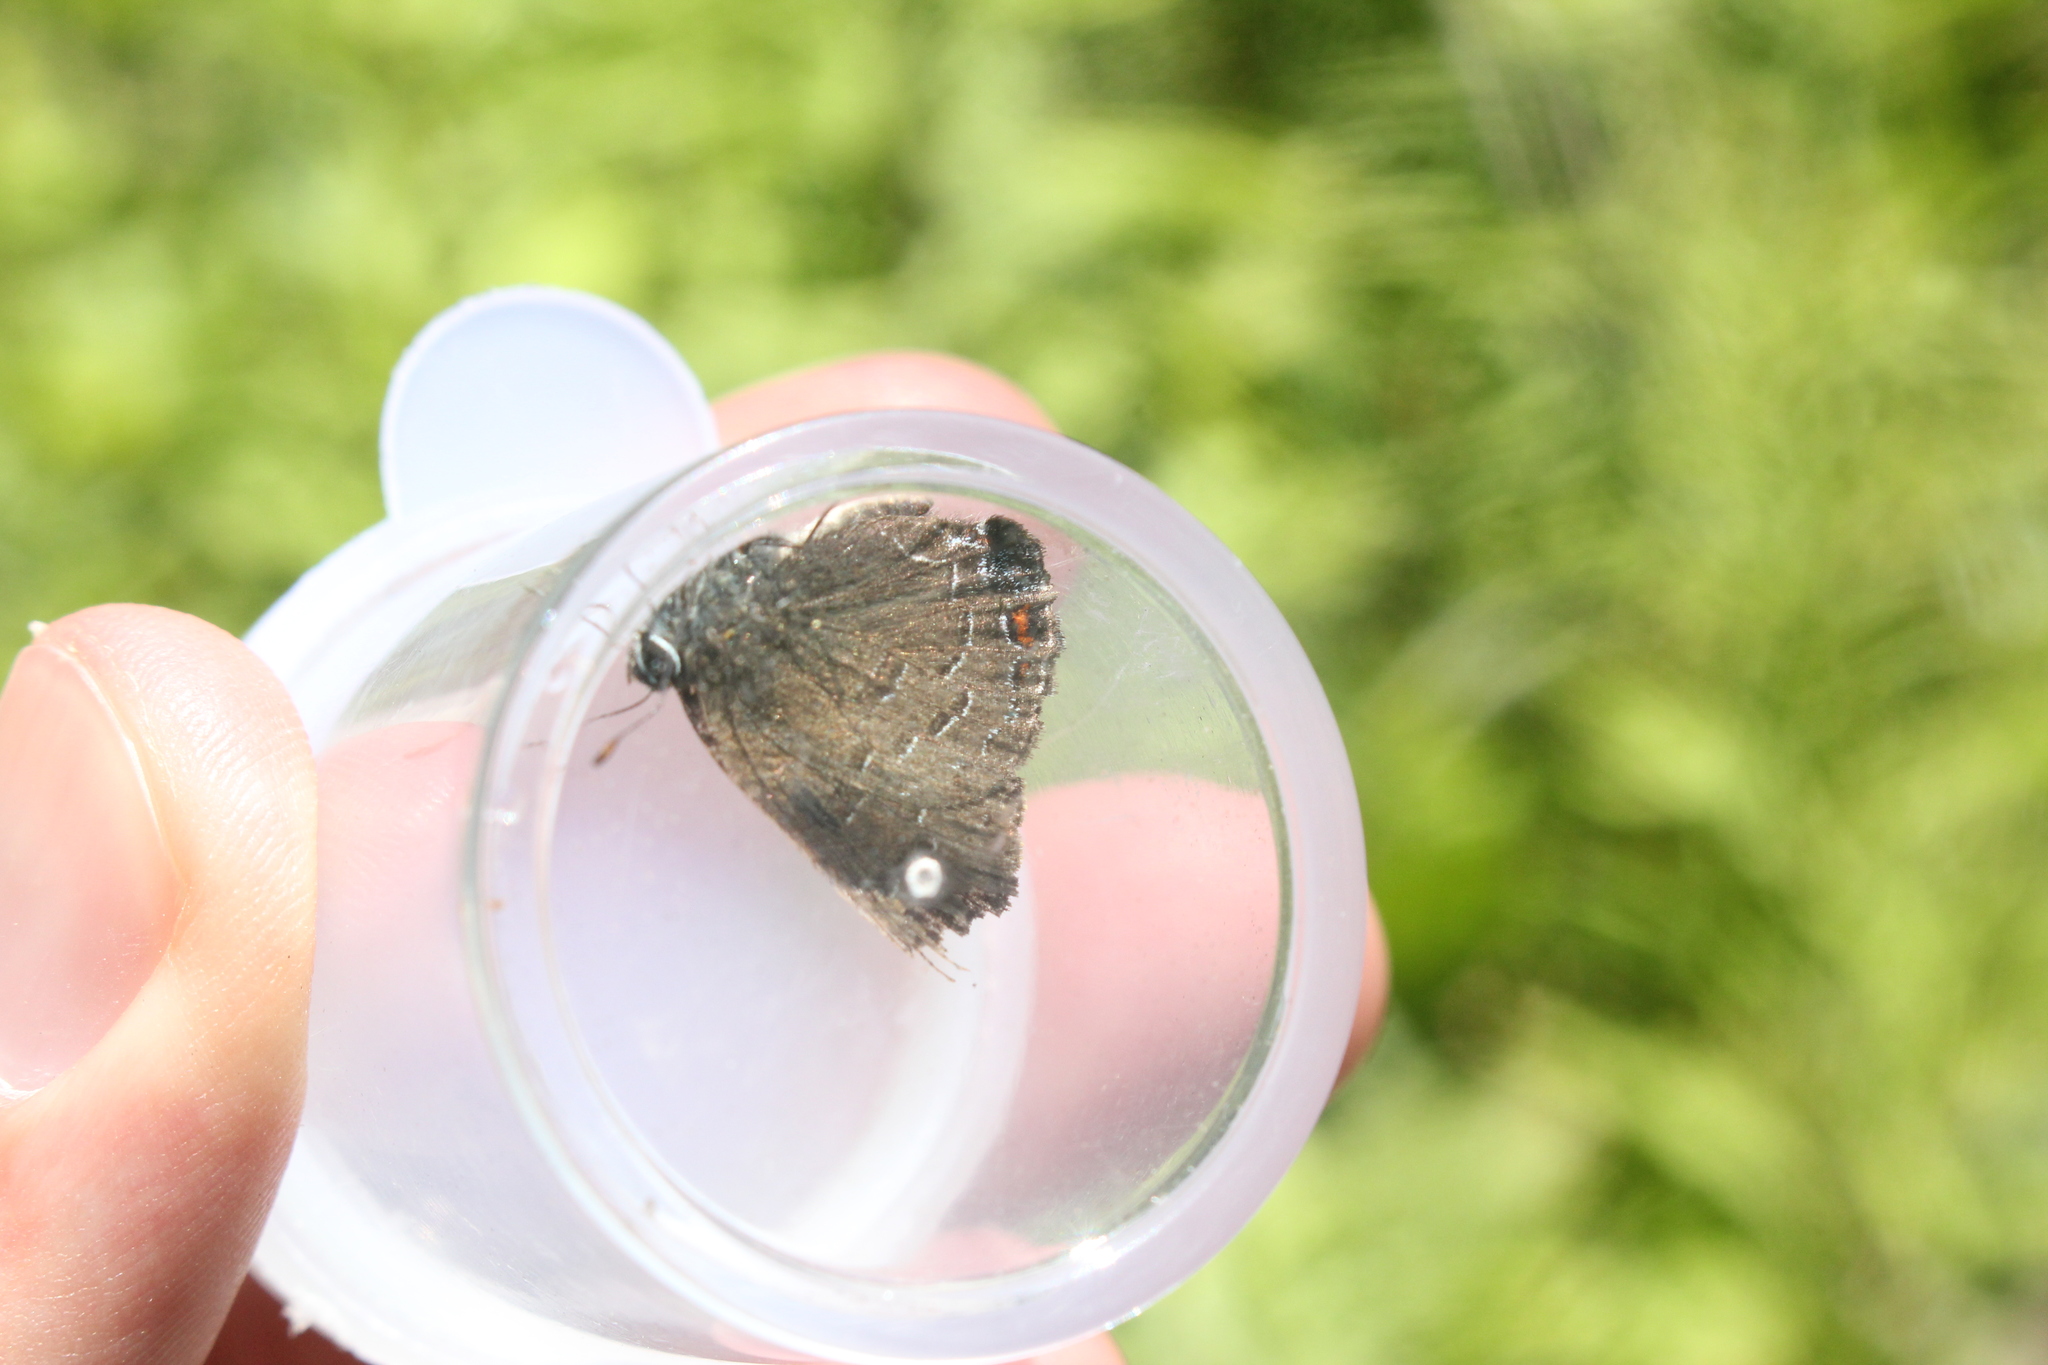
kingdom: Animalia
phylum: Arthropoda
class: Insecta
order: Lepidoptera
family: Lycaenidae
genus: Satyrium
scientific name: Satyrium calanus
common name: Banded hairstreak
